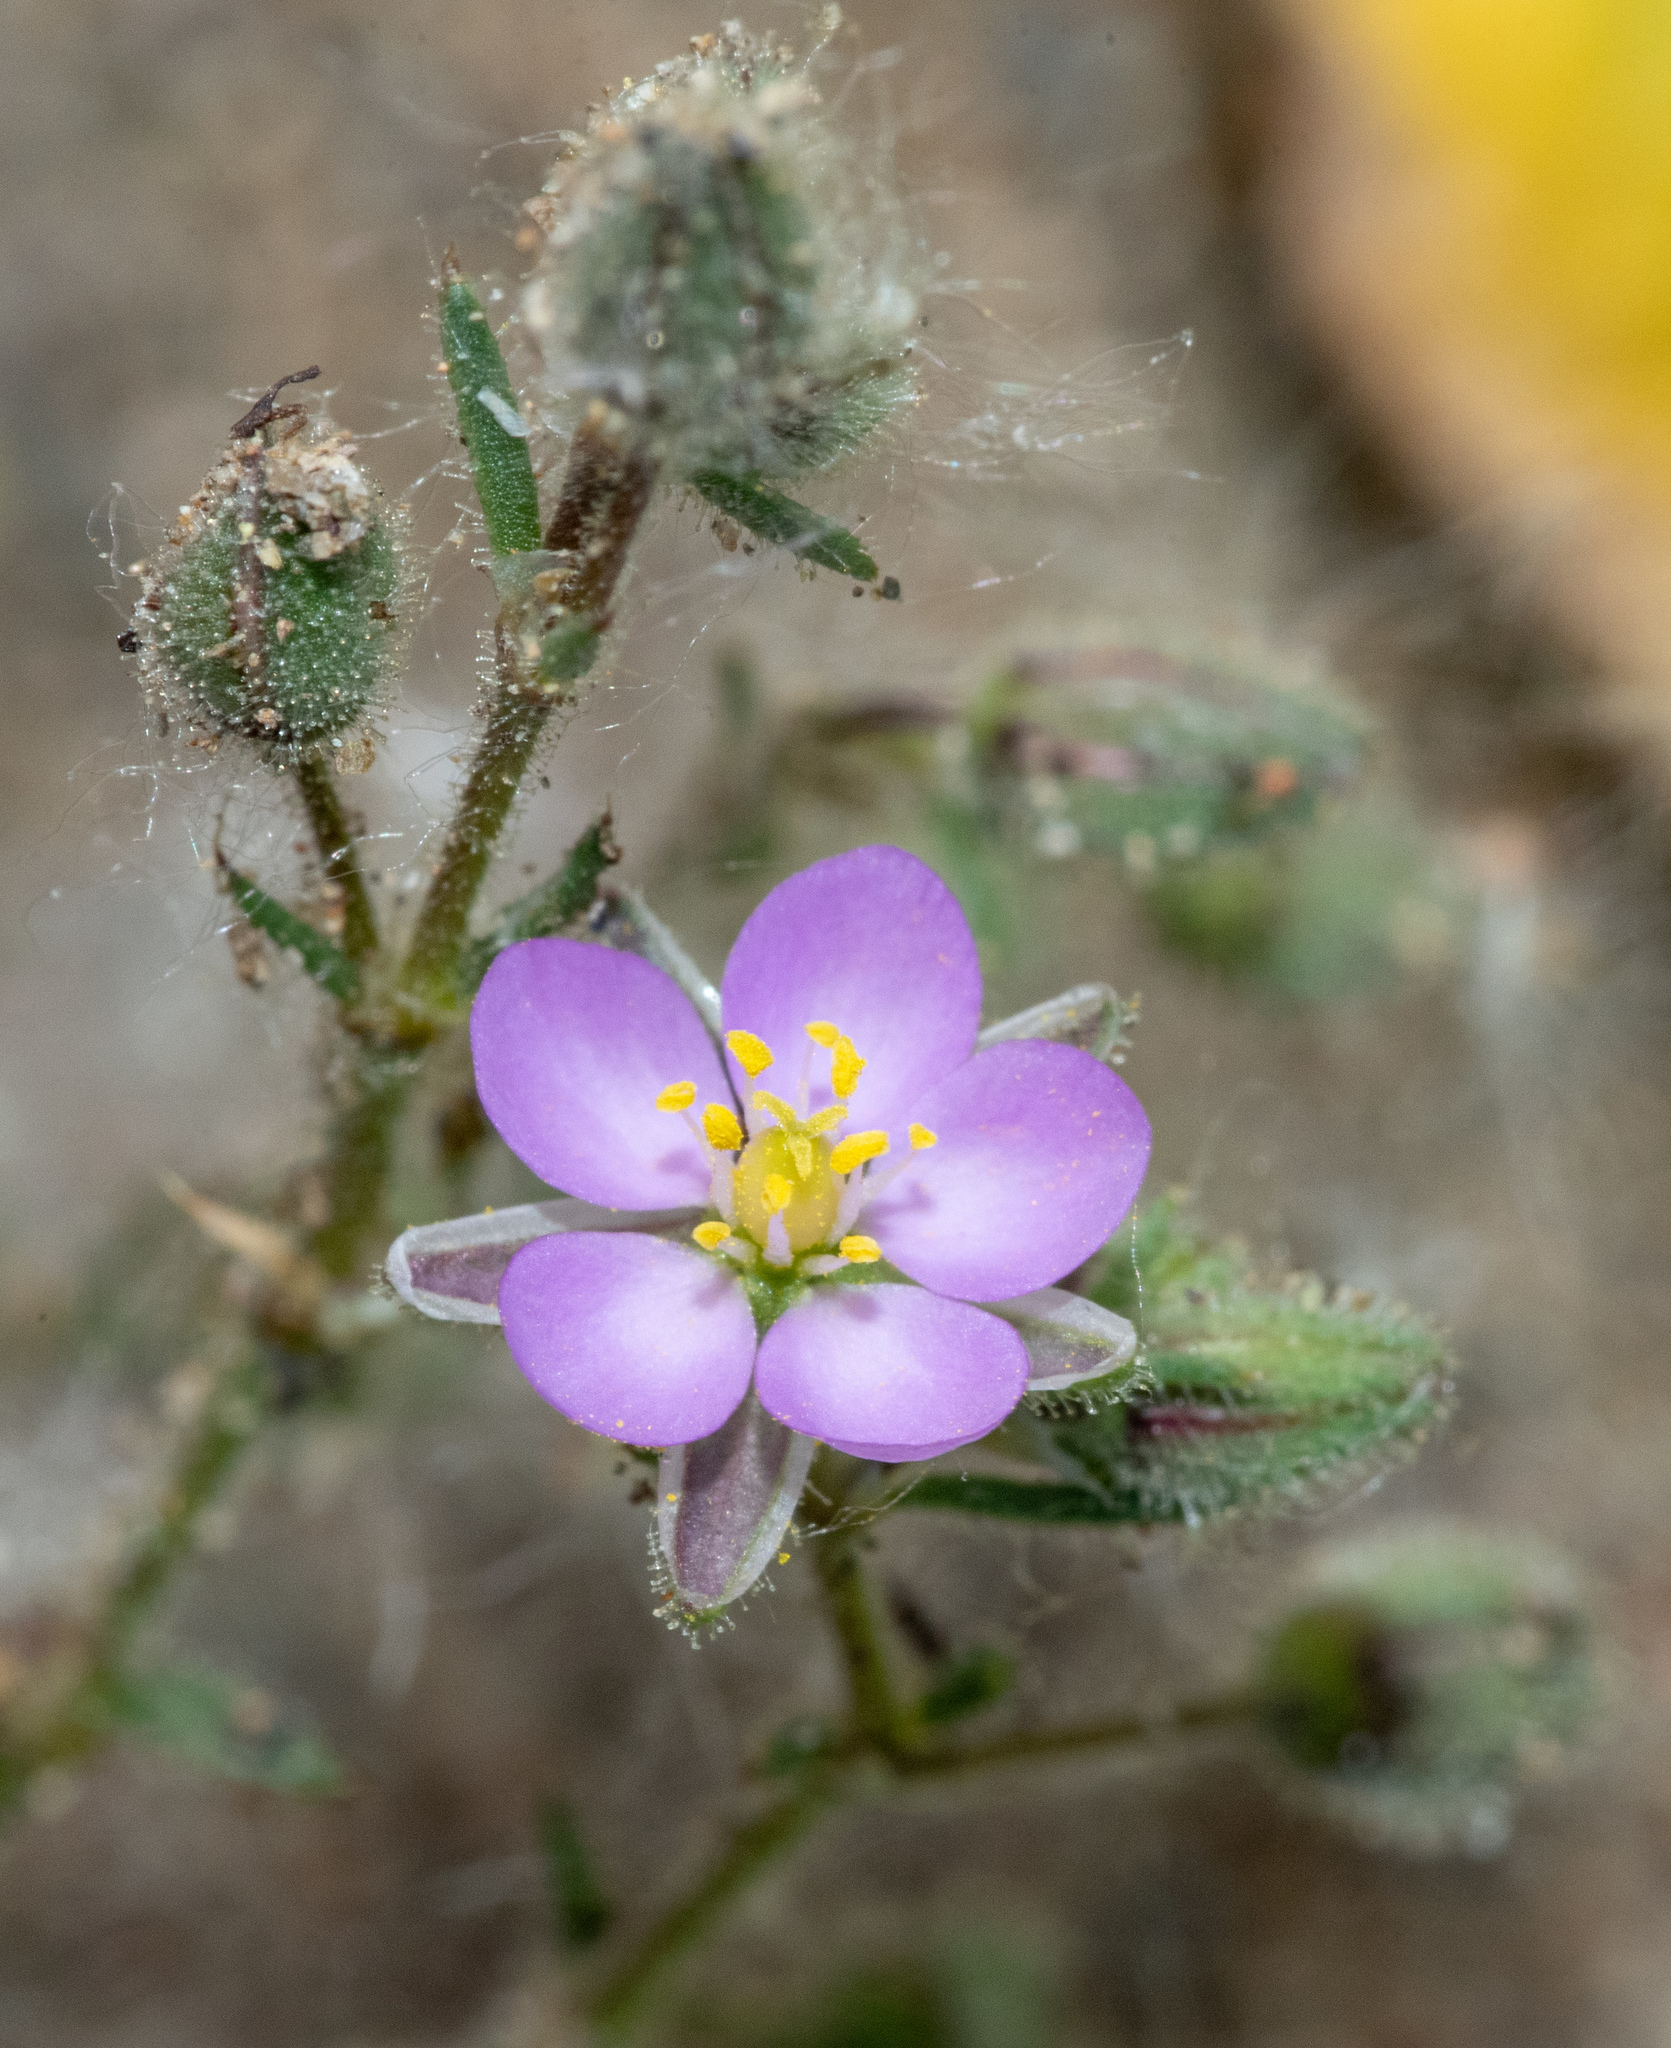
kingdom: Plantae
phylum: Tracheophyta
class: Magnoliopsida
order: Caryophyllales
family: Caryophyllaceae
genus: Spergularia
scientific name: Spergularia macrotheca
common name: Beach sand-spurrey
